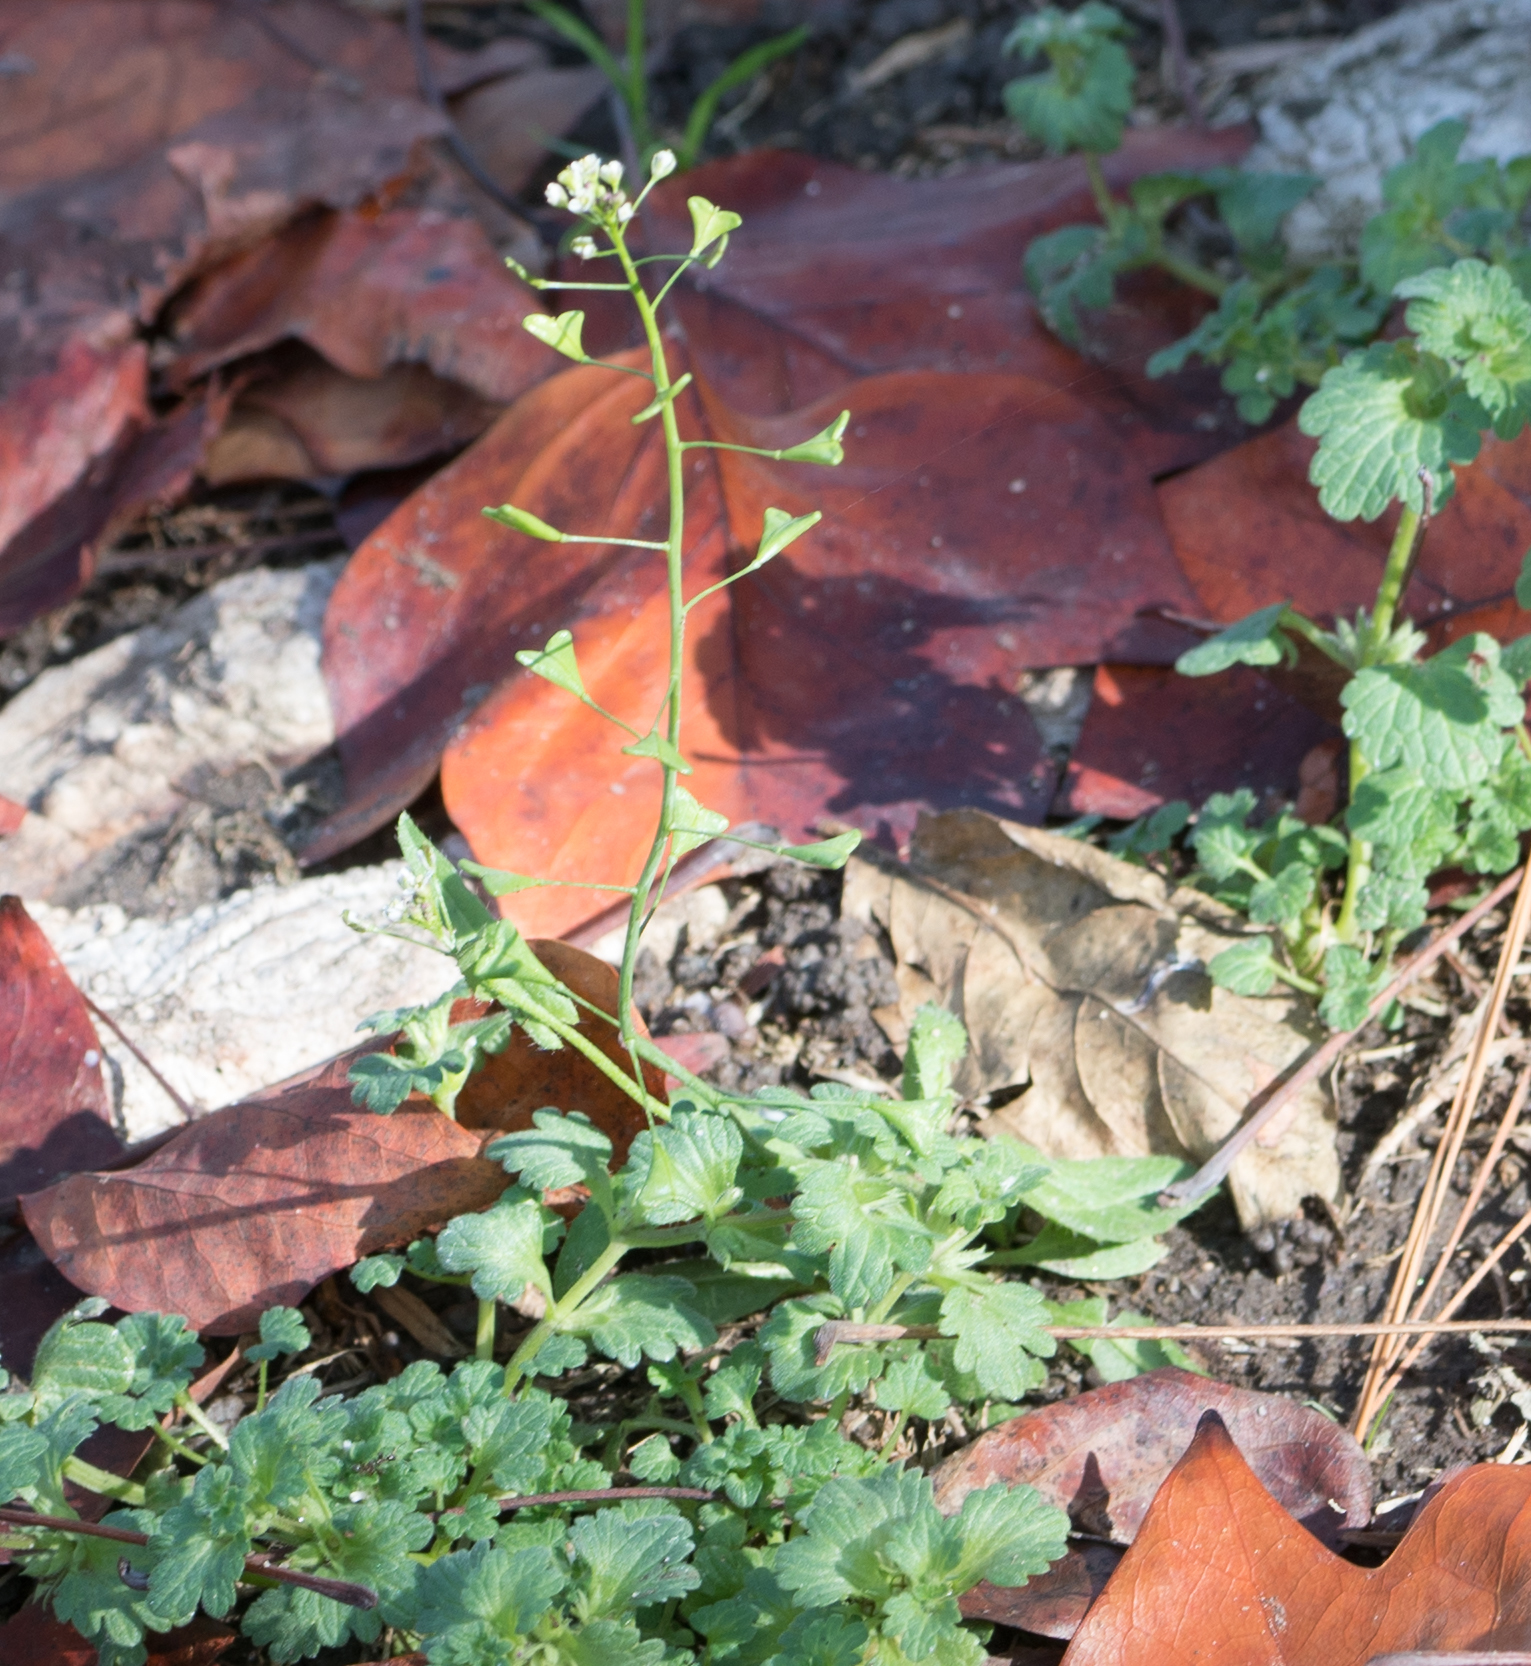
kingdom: Plantae
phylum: Tracheophyta
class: Magnoliopsida
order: Brassicales
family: Brassicaceae
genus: Capsella
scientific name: Capsella bursa-pastoris
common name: Shepherd's purse
